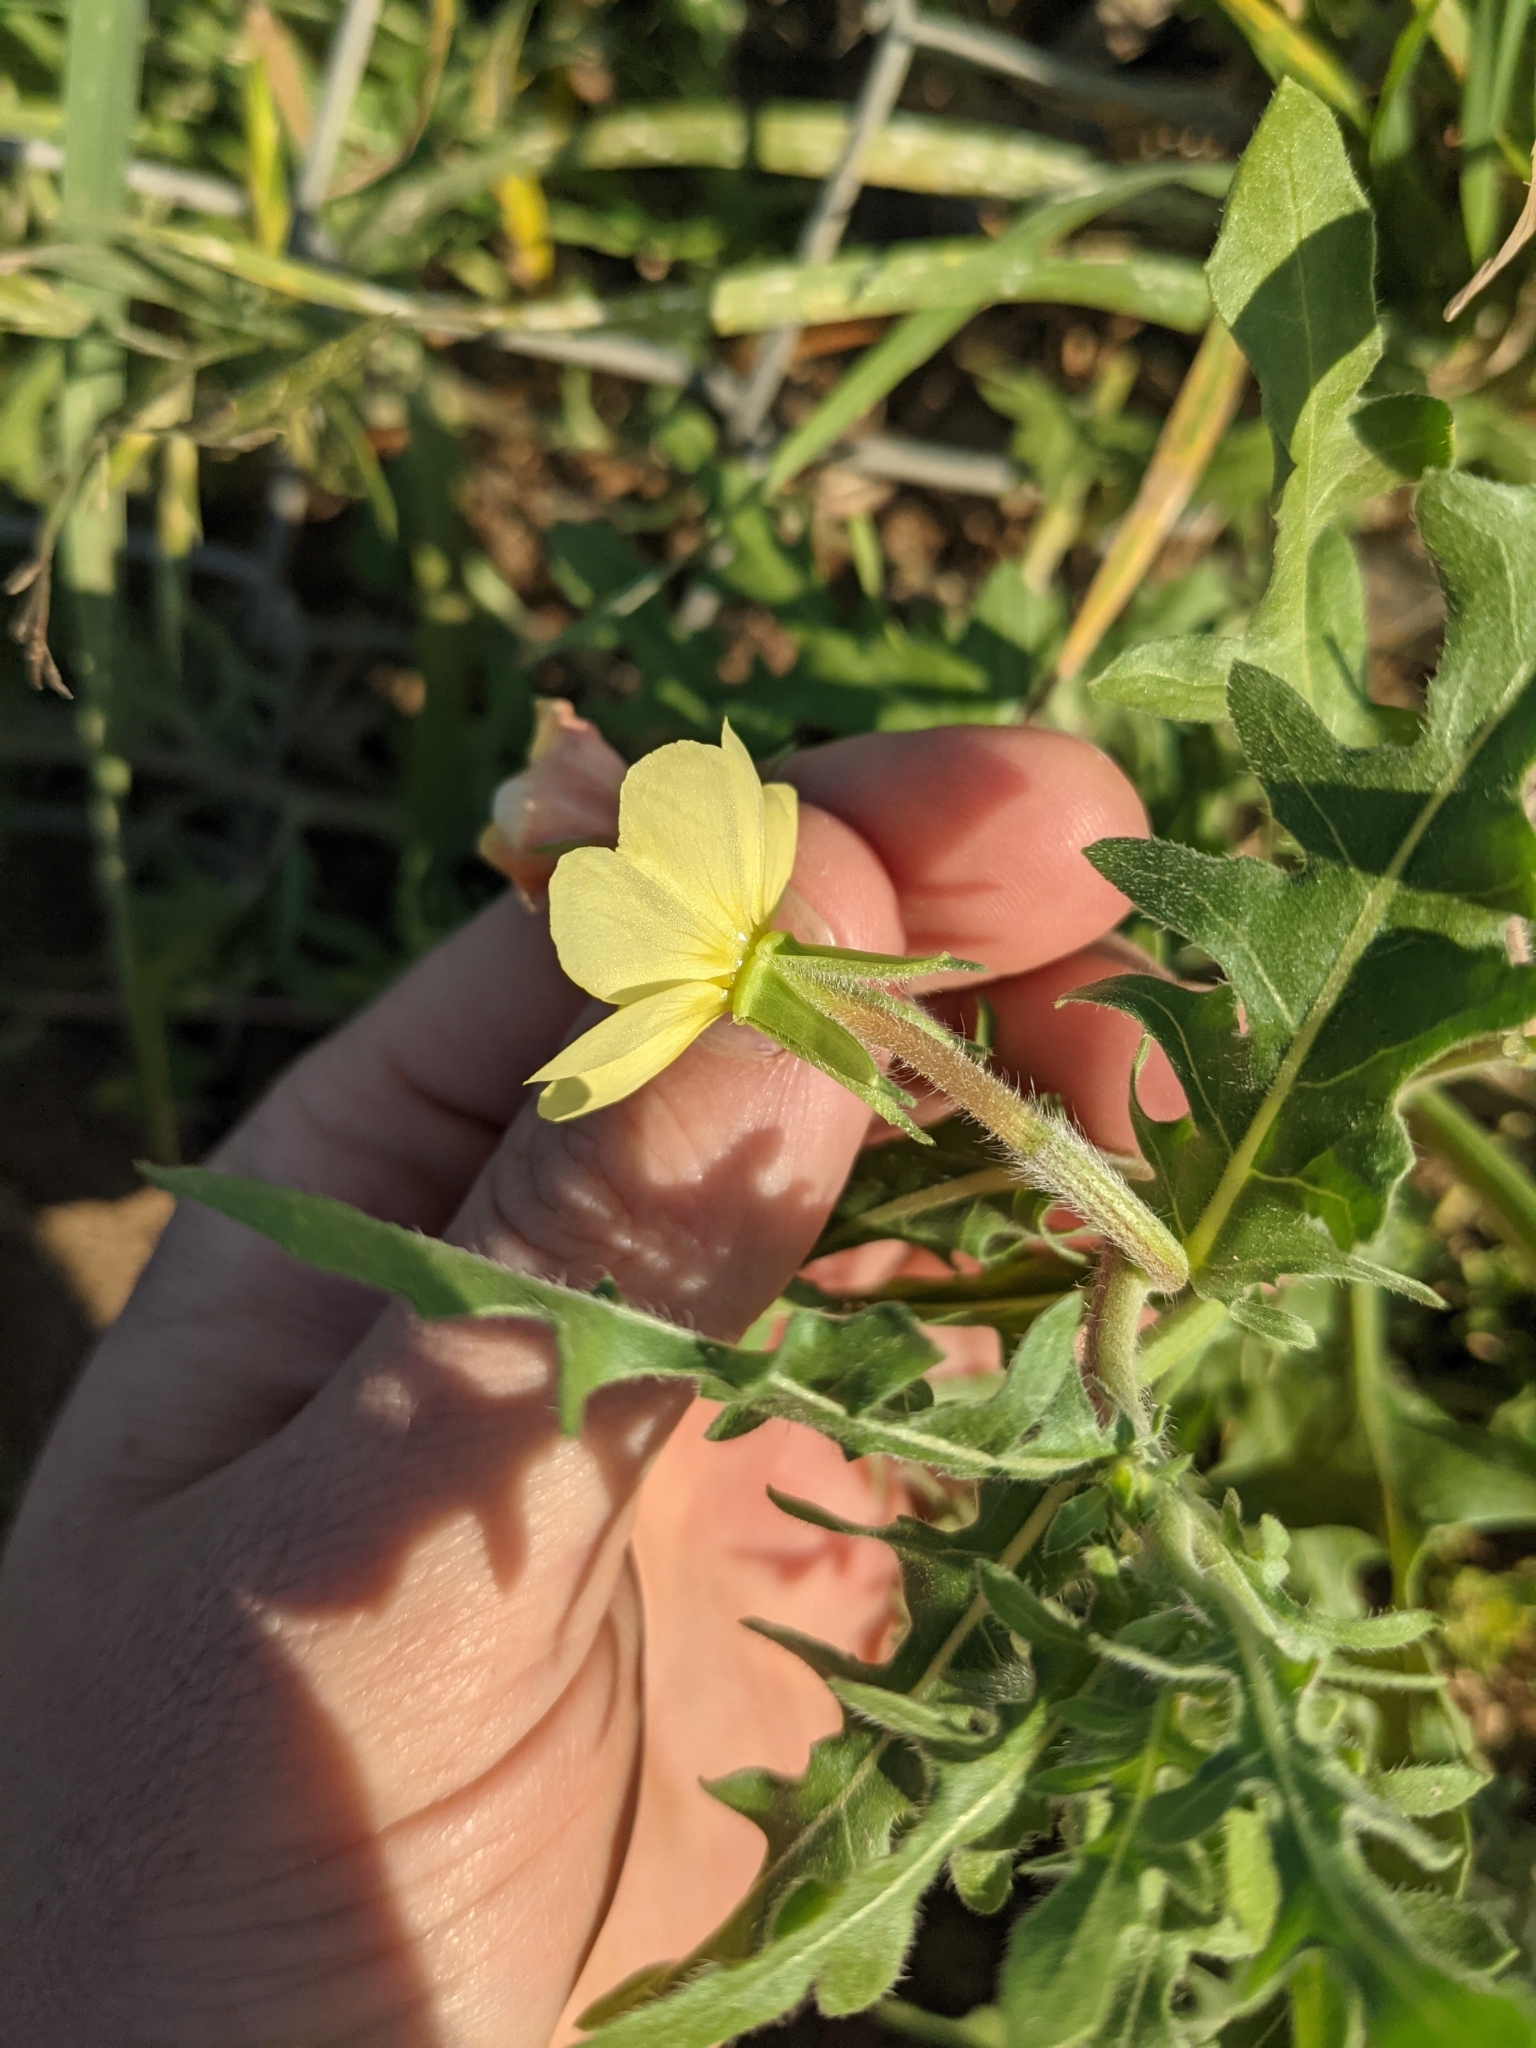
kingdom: Plantae
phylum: Tracheophyta
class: Magnoliopsida
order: Myrtales
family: Onagraceae
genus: Oenothera
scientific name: Oenothera laciniata
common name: Cut-leaved evening-primrose
